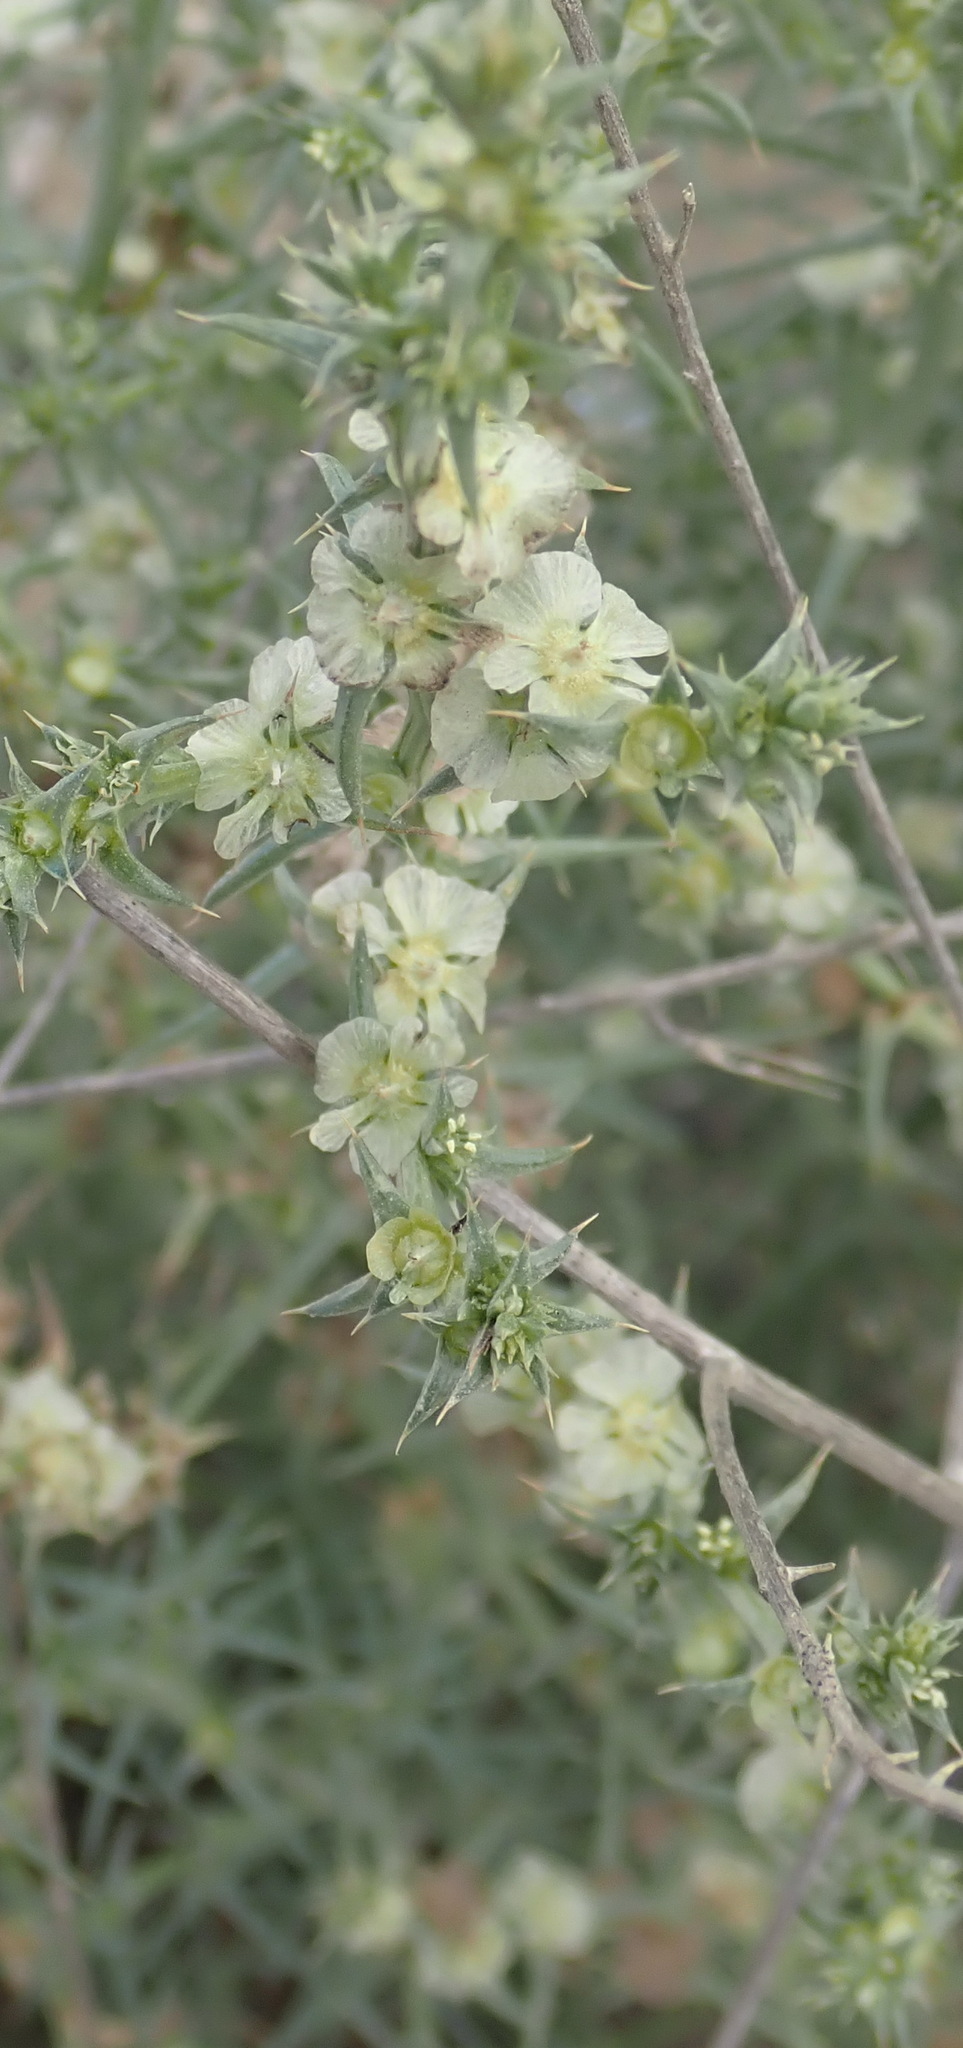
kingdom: Plantae
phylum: Tracheophyta
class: Magnoliopsida
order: Caryophyllales
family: Amaranthaceae
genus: Salsola
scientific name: Salsola kali
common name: Saltwort
